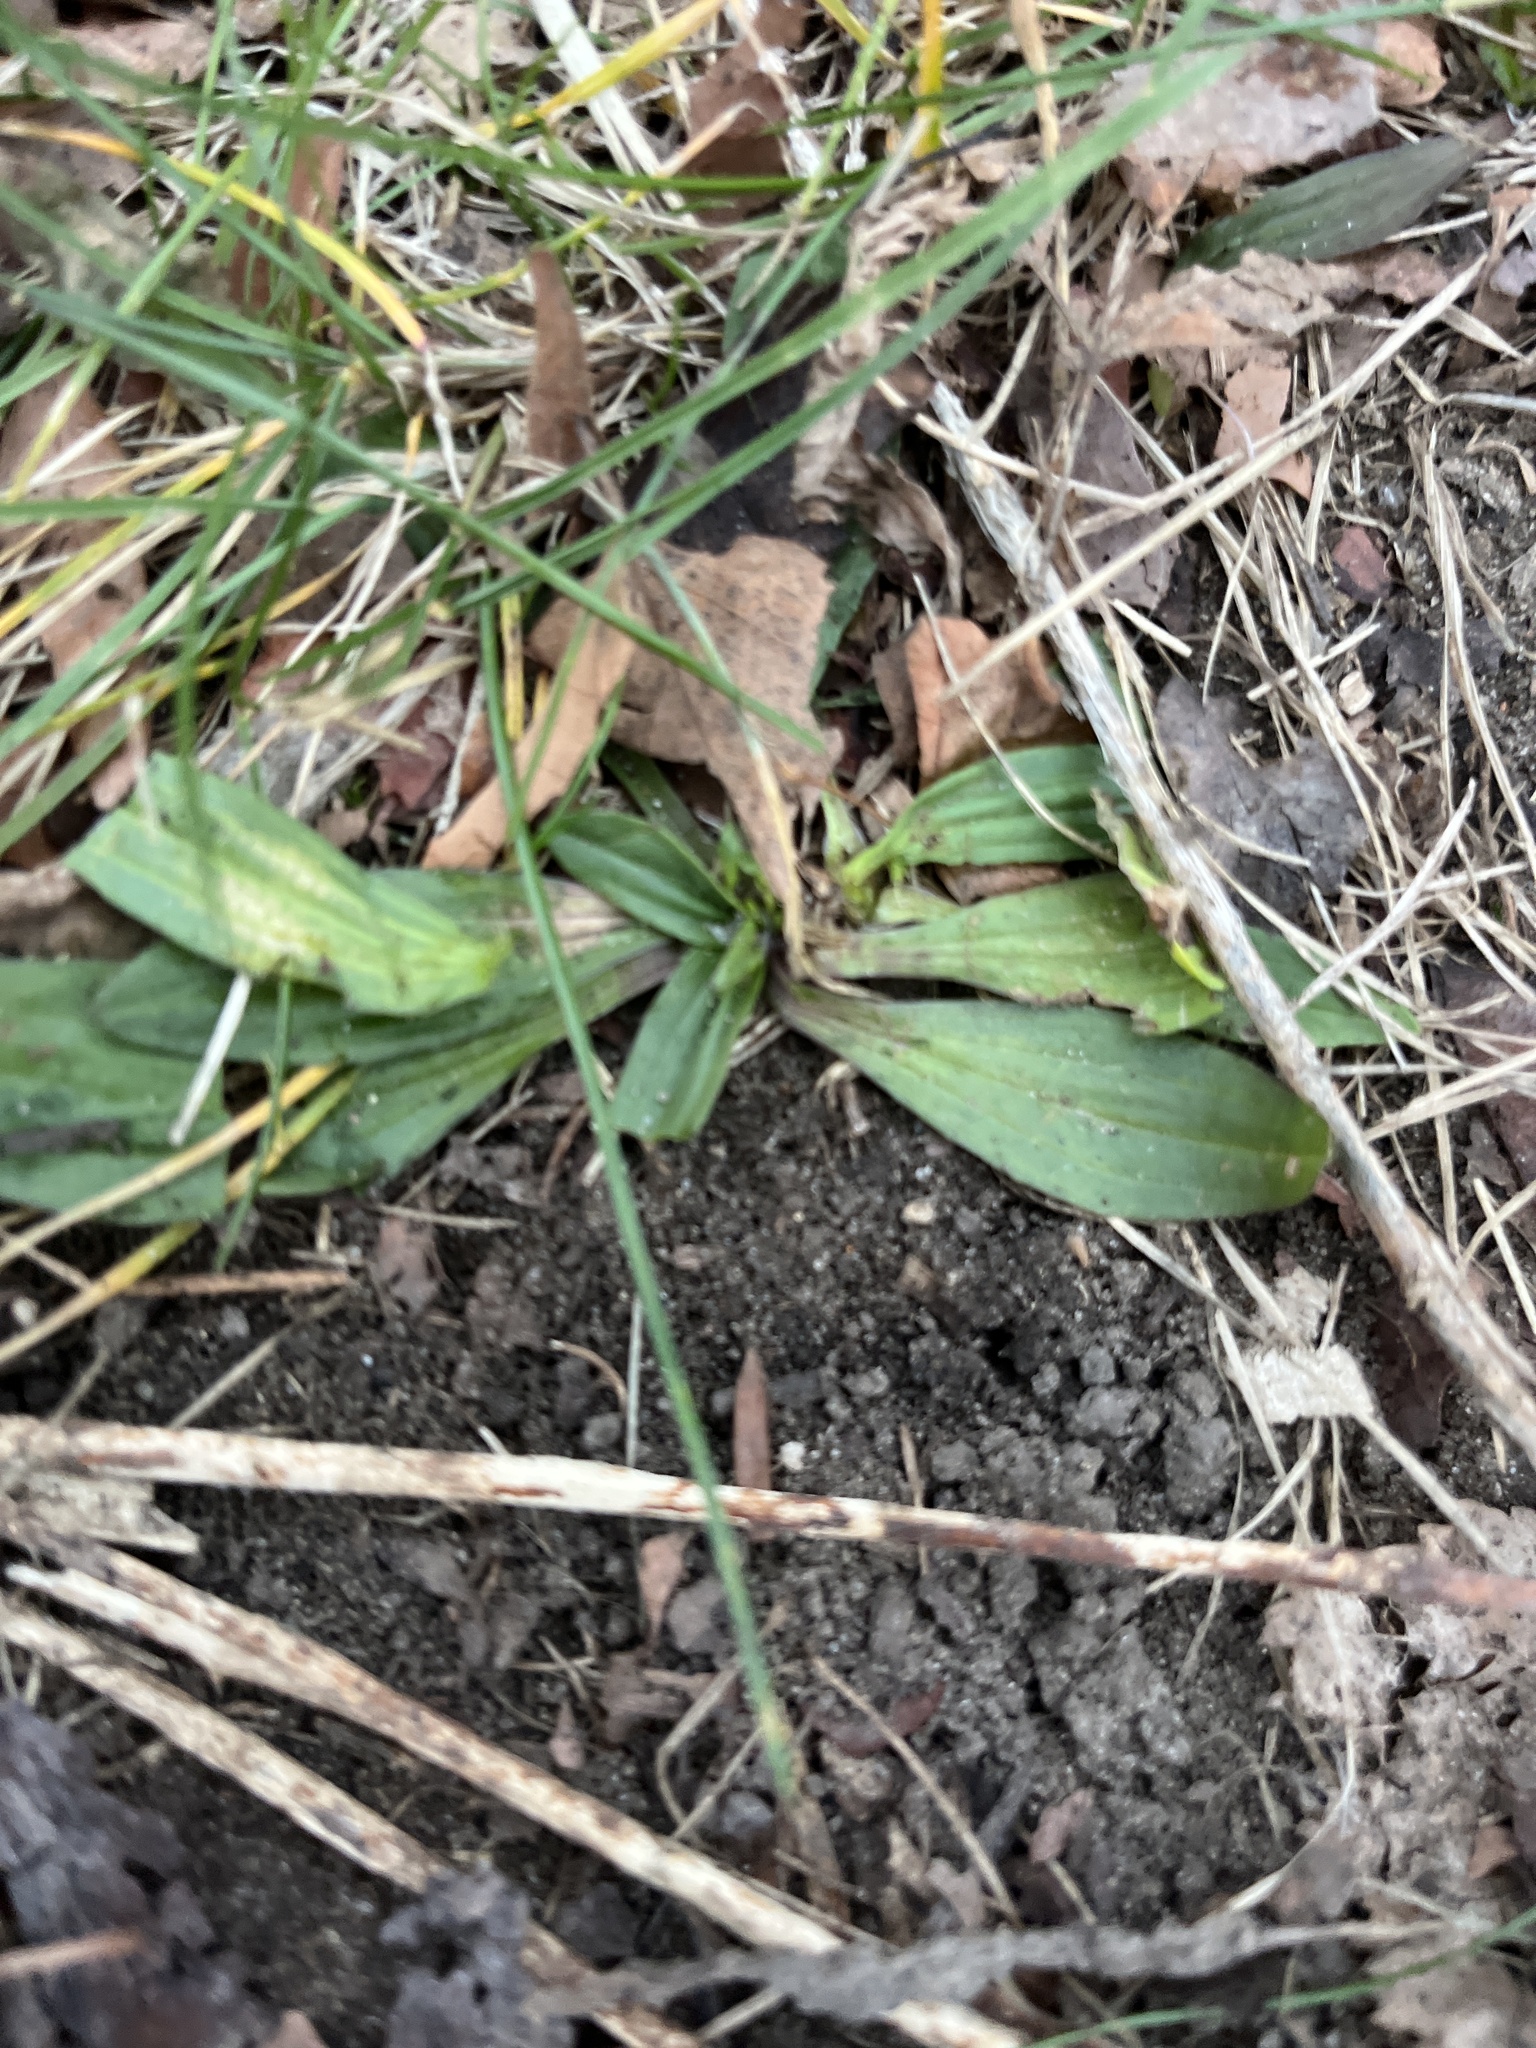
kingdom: Plantae
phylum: Tracheophyta
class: Magnoliopsida
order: Lamiales
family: Plantaginaceae
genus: Plantago
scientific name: Plantago lanceolata
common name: Ribwort plantain
